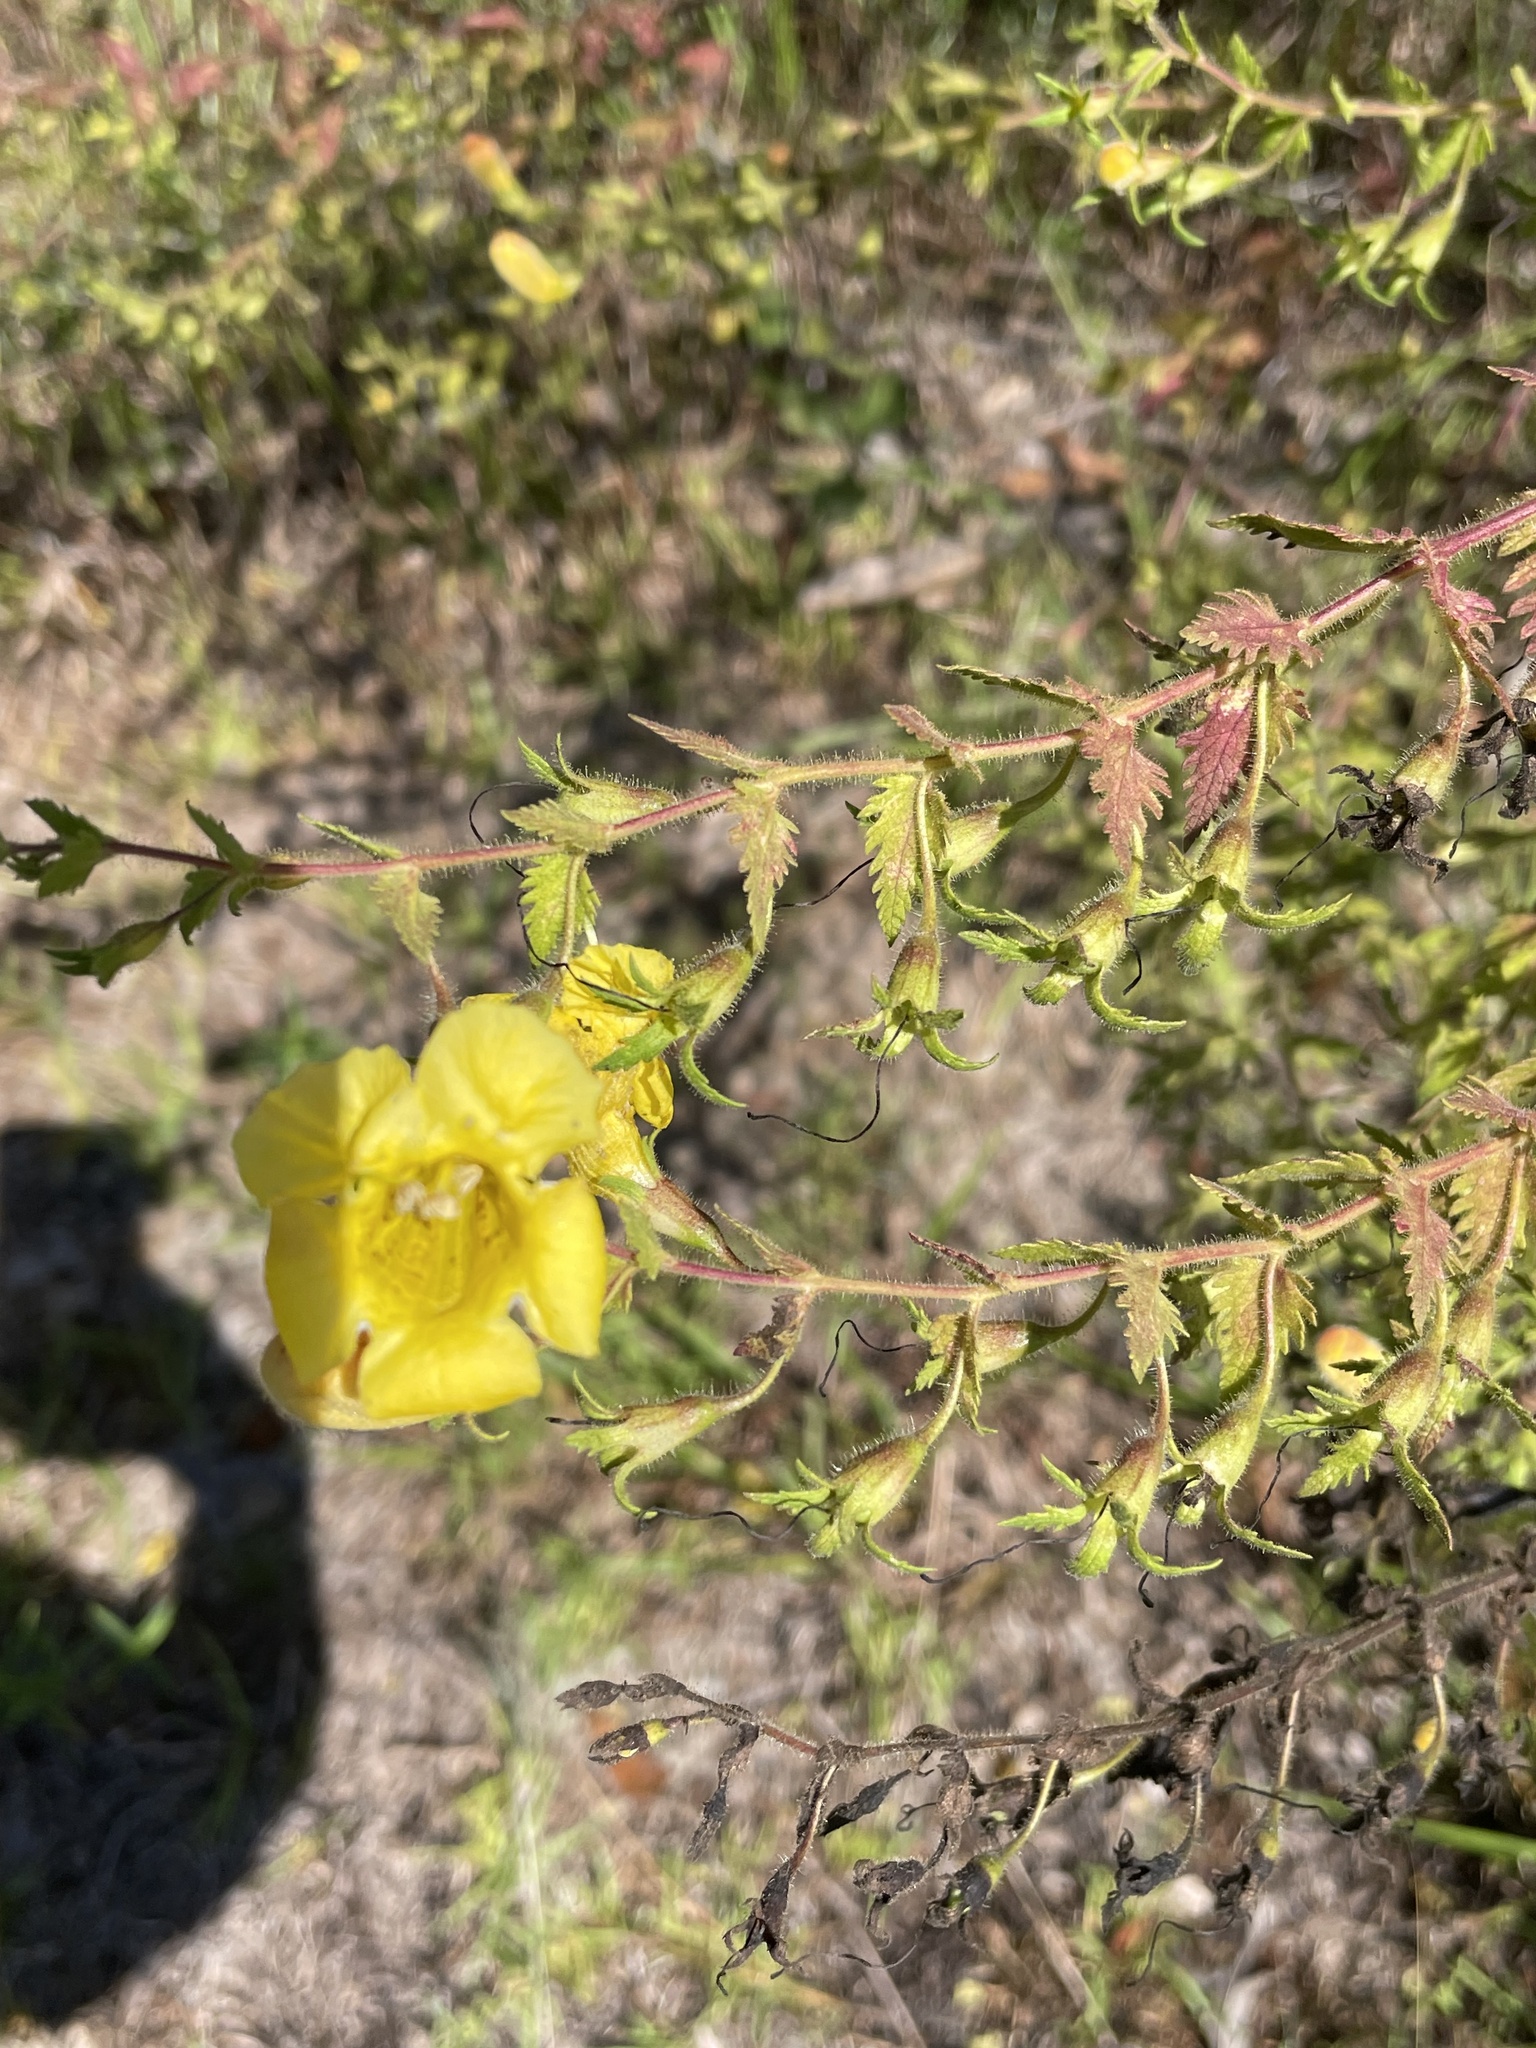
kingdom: Plantae
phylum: Tracheophyta
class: Magnoliopsida
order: Lamiales
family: Orobanchaceae
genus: Aureolaria
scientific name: Aureolaria pectinata
